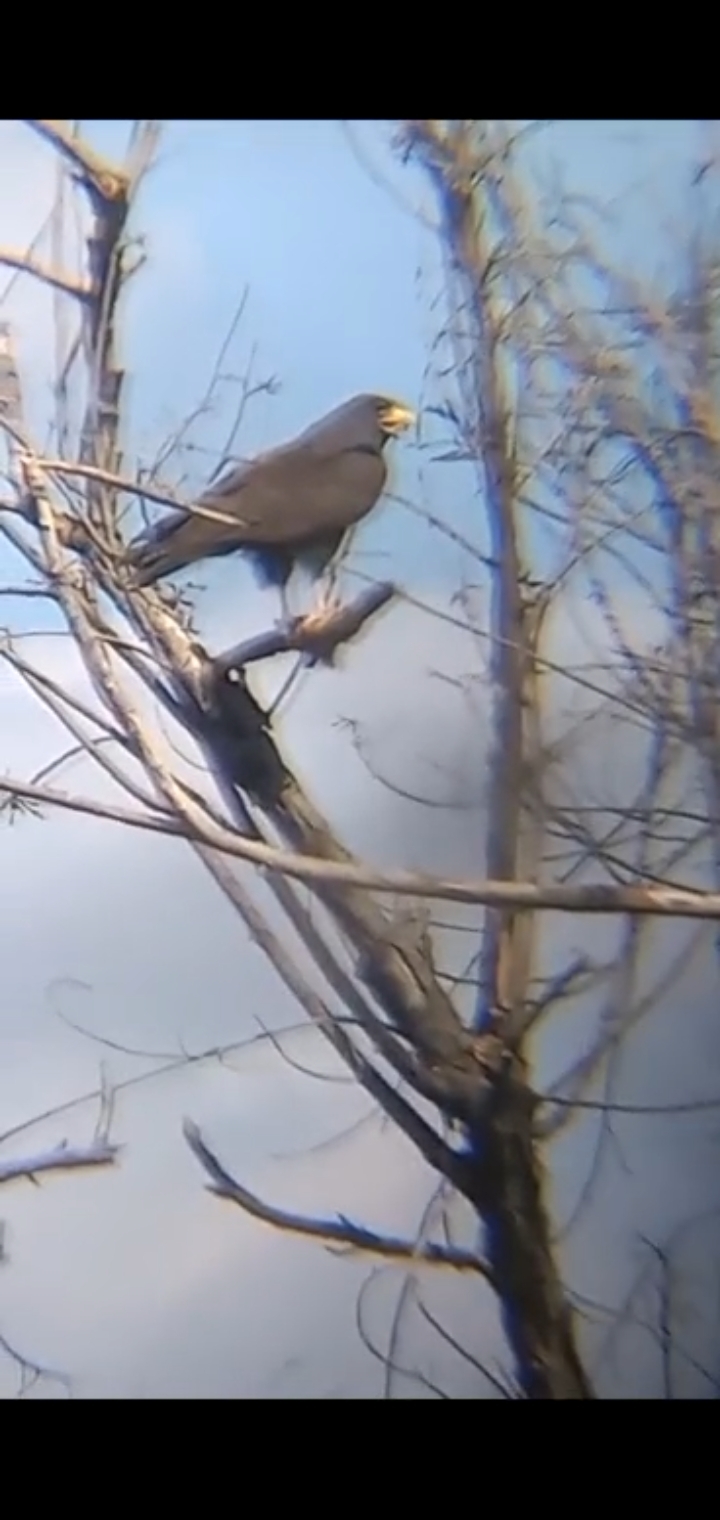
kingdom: Animalia
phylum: Chordata
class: Aves
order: Accipitriformes
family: Accipitridae
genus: Buteogallus
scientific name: Buteogallus anthracinus
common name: Common black hawk
